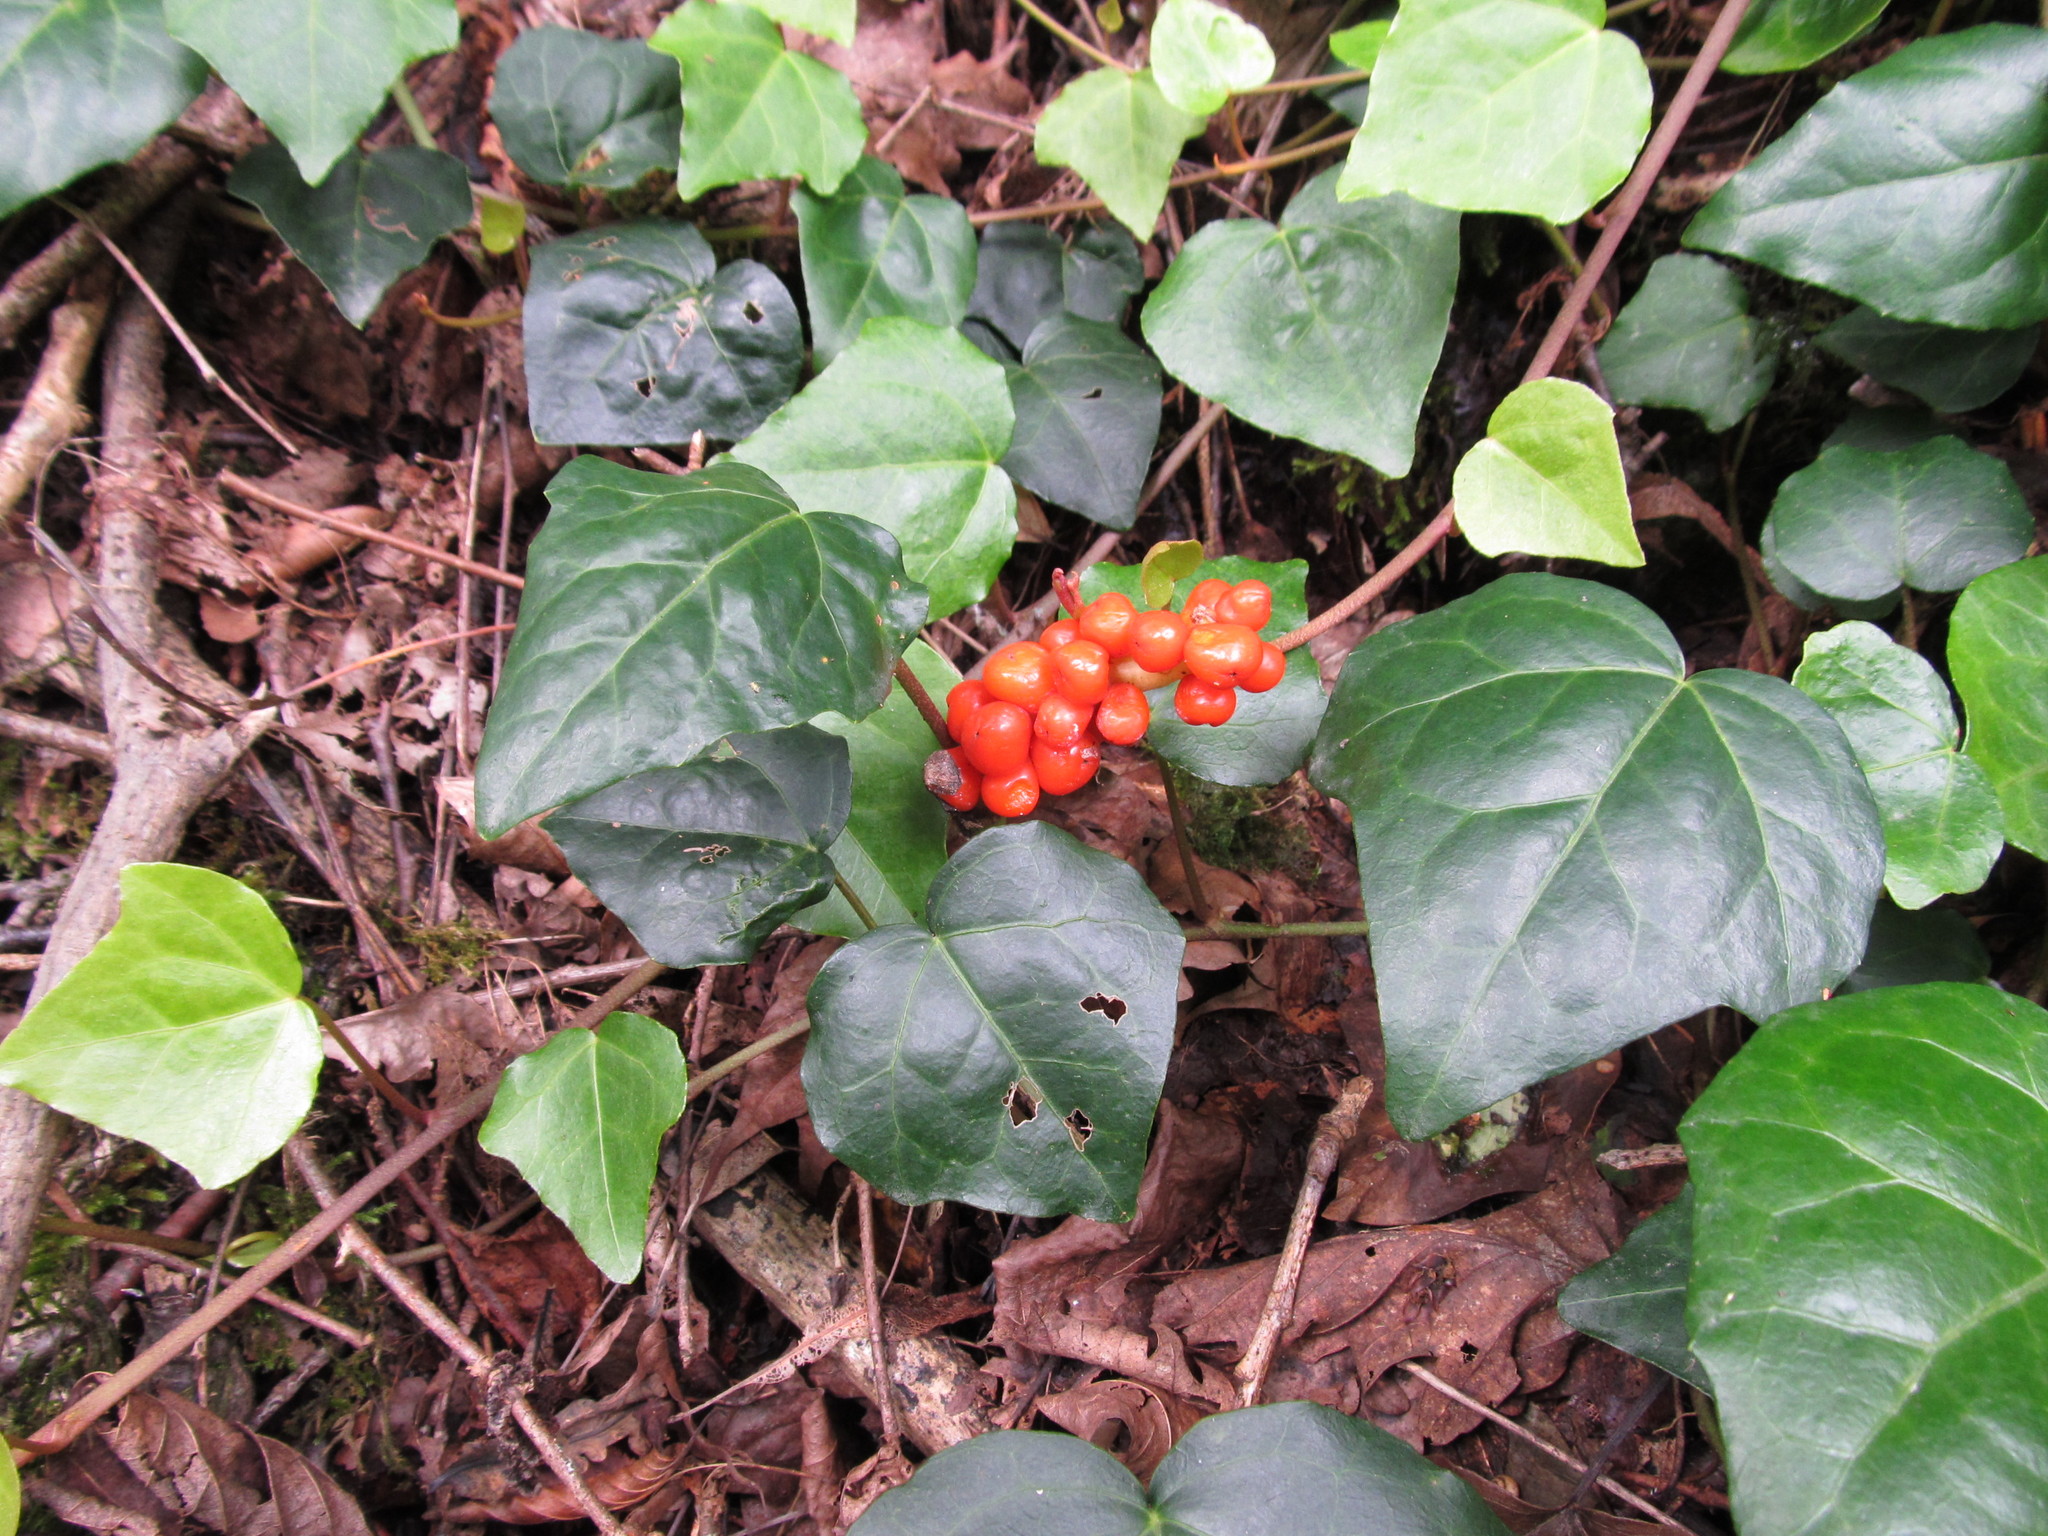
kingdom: Plantae
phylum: Tracheophyta
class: Liliopsida
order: Alismatales
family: Araceae
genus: Arum
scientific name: Arum megobrebi
